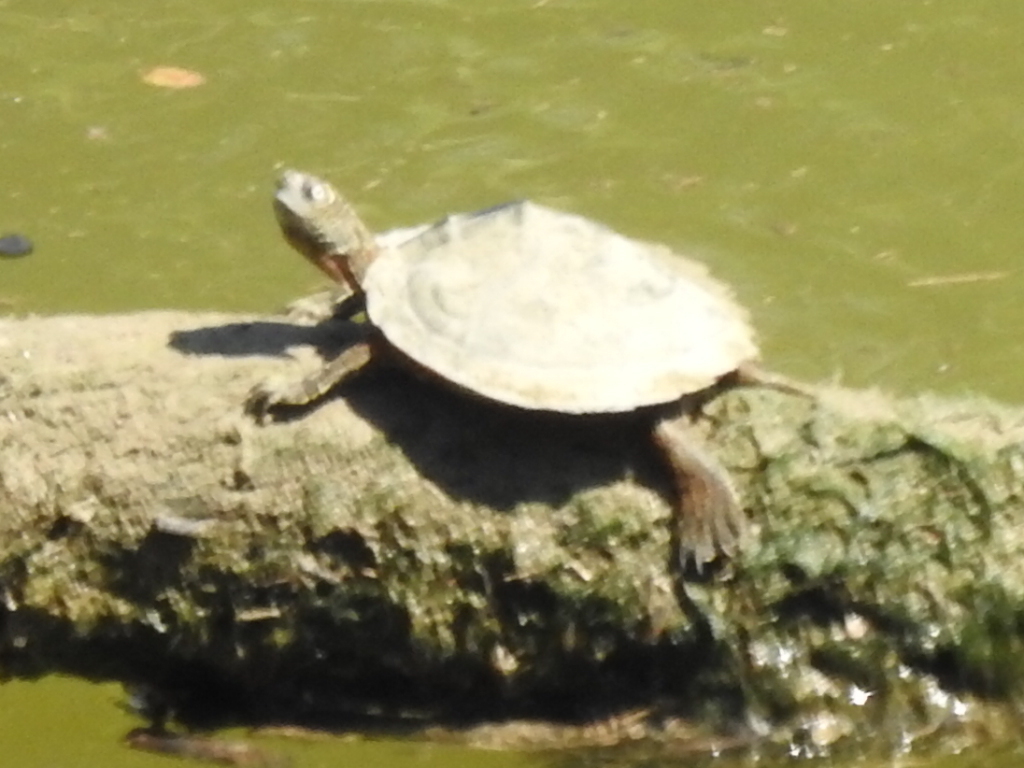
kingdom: Animalia
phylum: Chordata
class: Testudines
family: Emydidae
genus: Graptemys
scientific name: Graptemys pseudogeographica
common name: False map turtle
